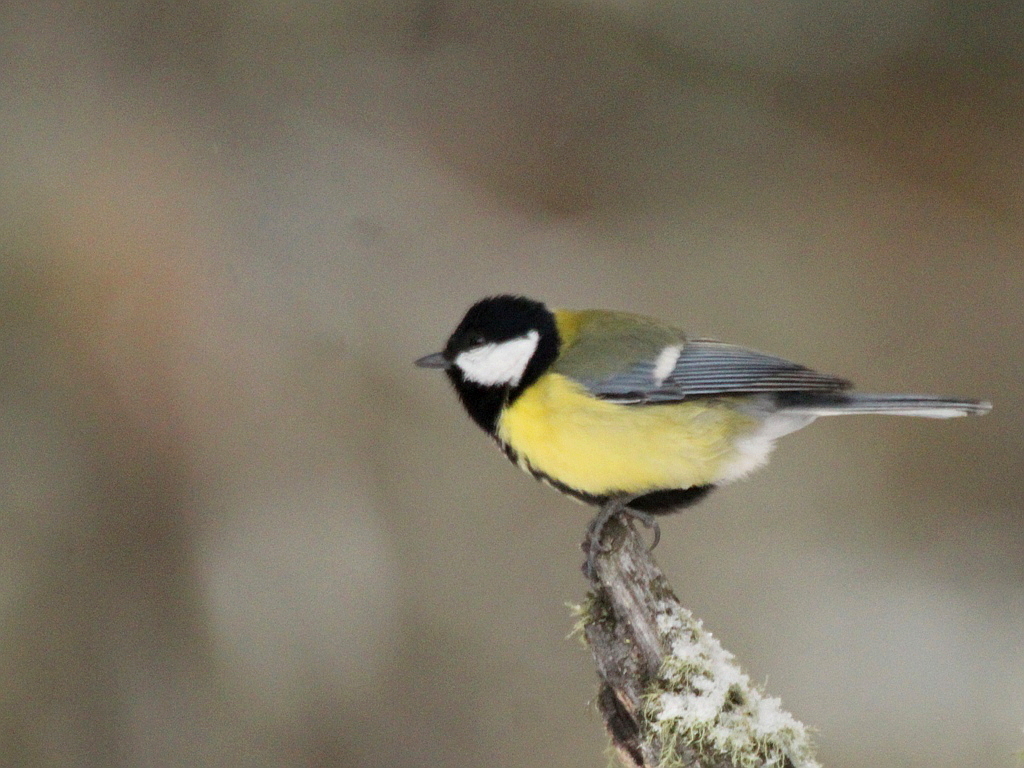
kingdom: Animalia
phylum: Chordata
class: Aves
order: Passeriformes
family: Paridae
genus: Parus
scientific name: Parus major
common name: Great tit
